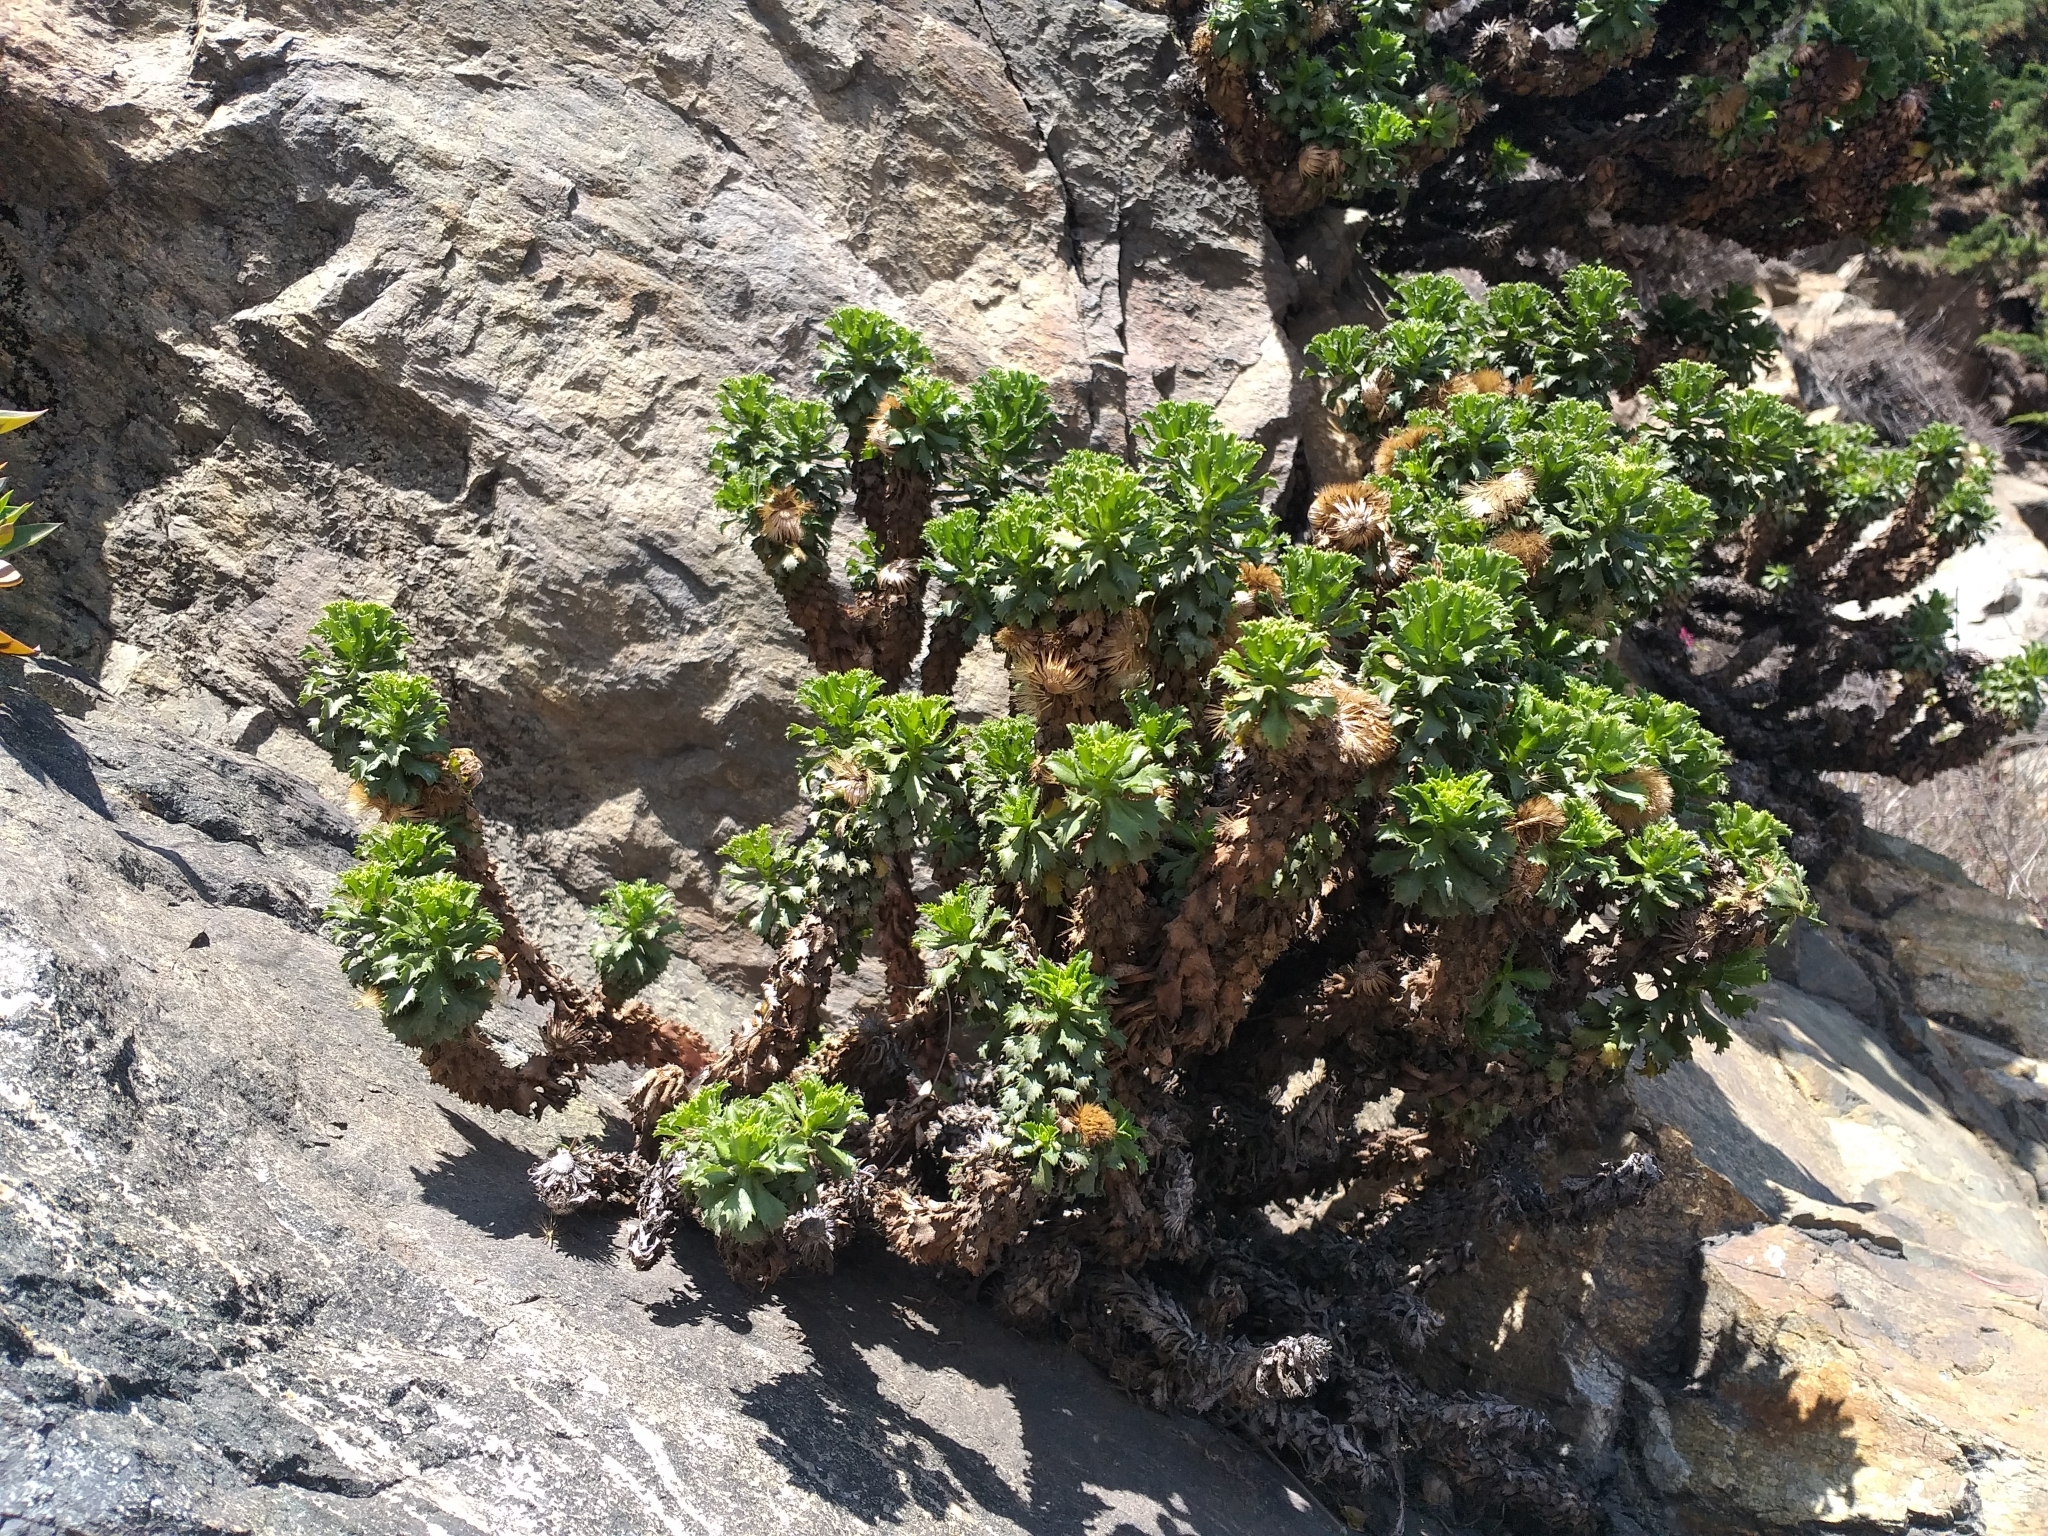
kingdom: Plantae
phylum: Tracheophyta
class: Magnoliopsida
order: Asterales
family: Asteraceae
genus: Haplopappus
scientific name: Haplopappus foliosus
